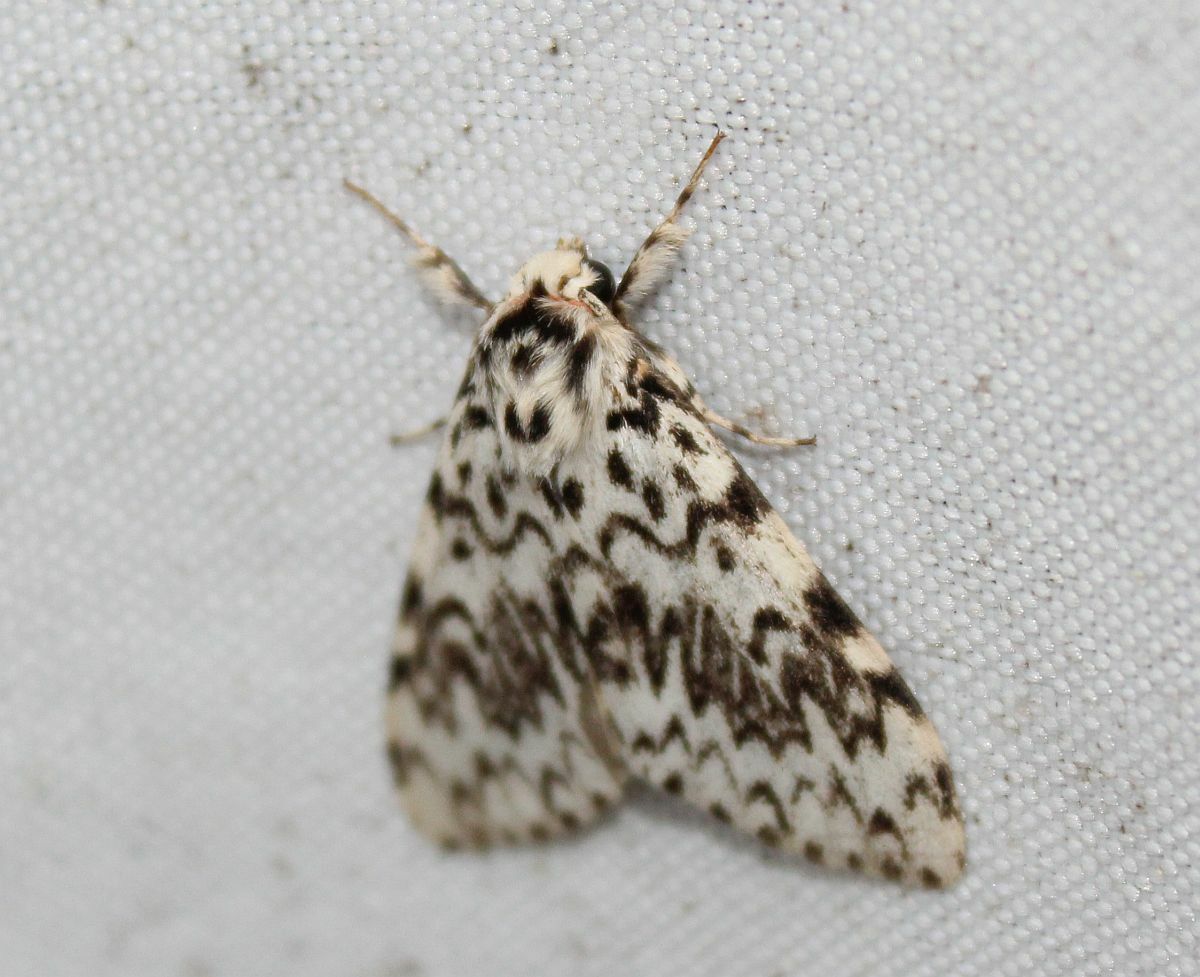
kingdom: Animalia
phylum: Arthropoda
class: Insecta
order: Lepidoptera
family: Erebidae
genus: Lymantria
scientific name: Lymantria monacha
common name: Black arches
